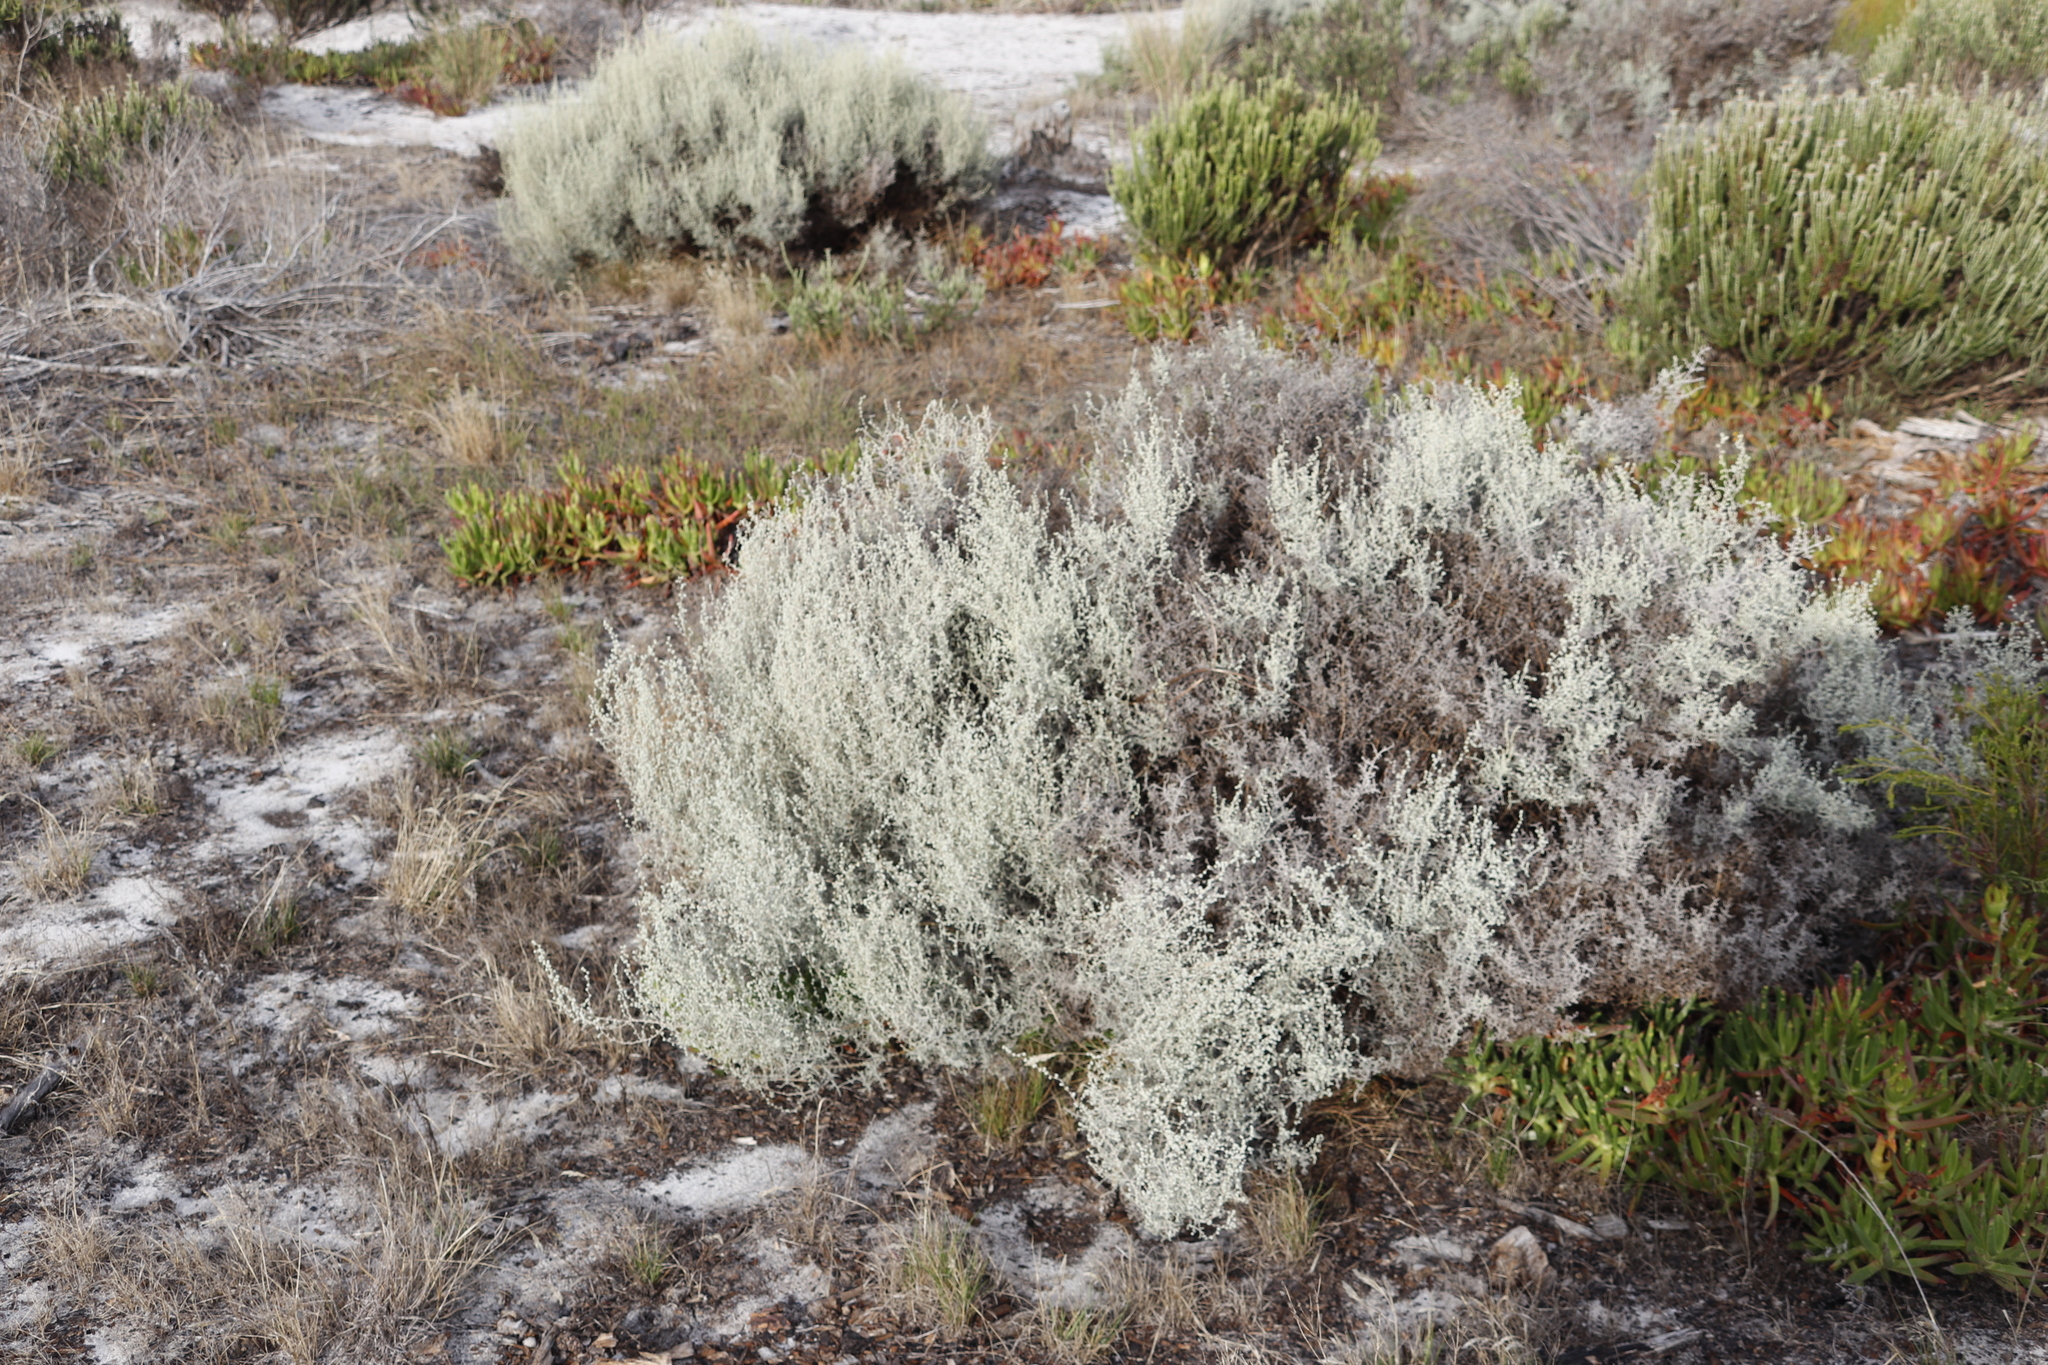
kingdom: Plantae
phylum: Tracheophyta
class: Magnoliopsida
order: Asterales
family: Asteraceae
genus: Seriphium
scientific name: Seriphium plumosum
